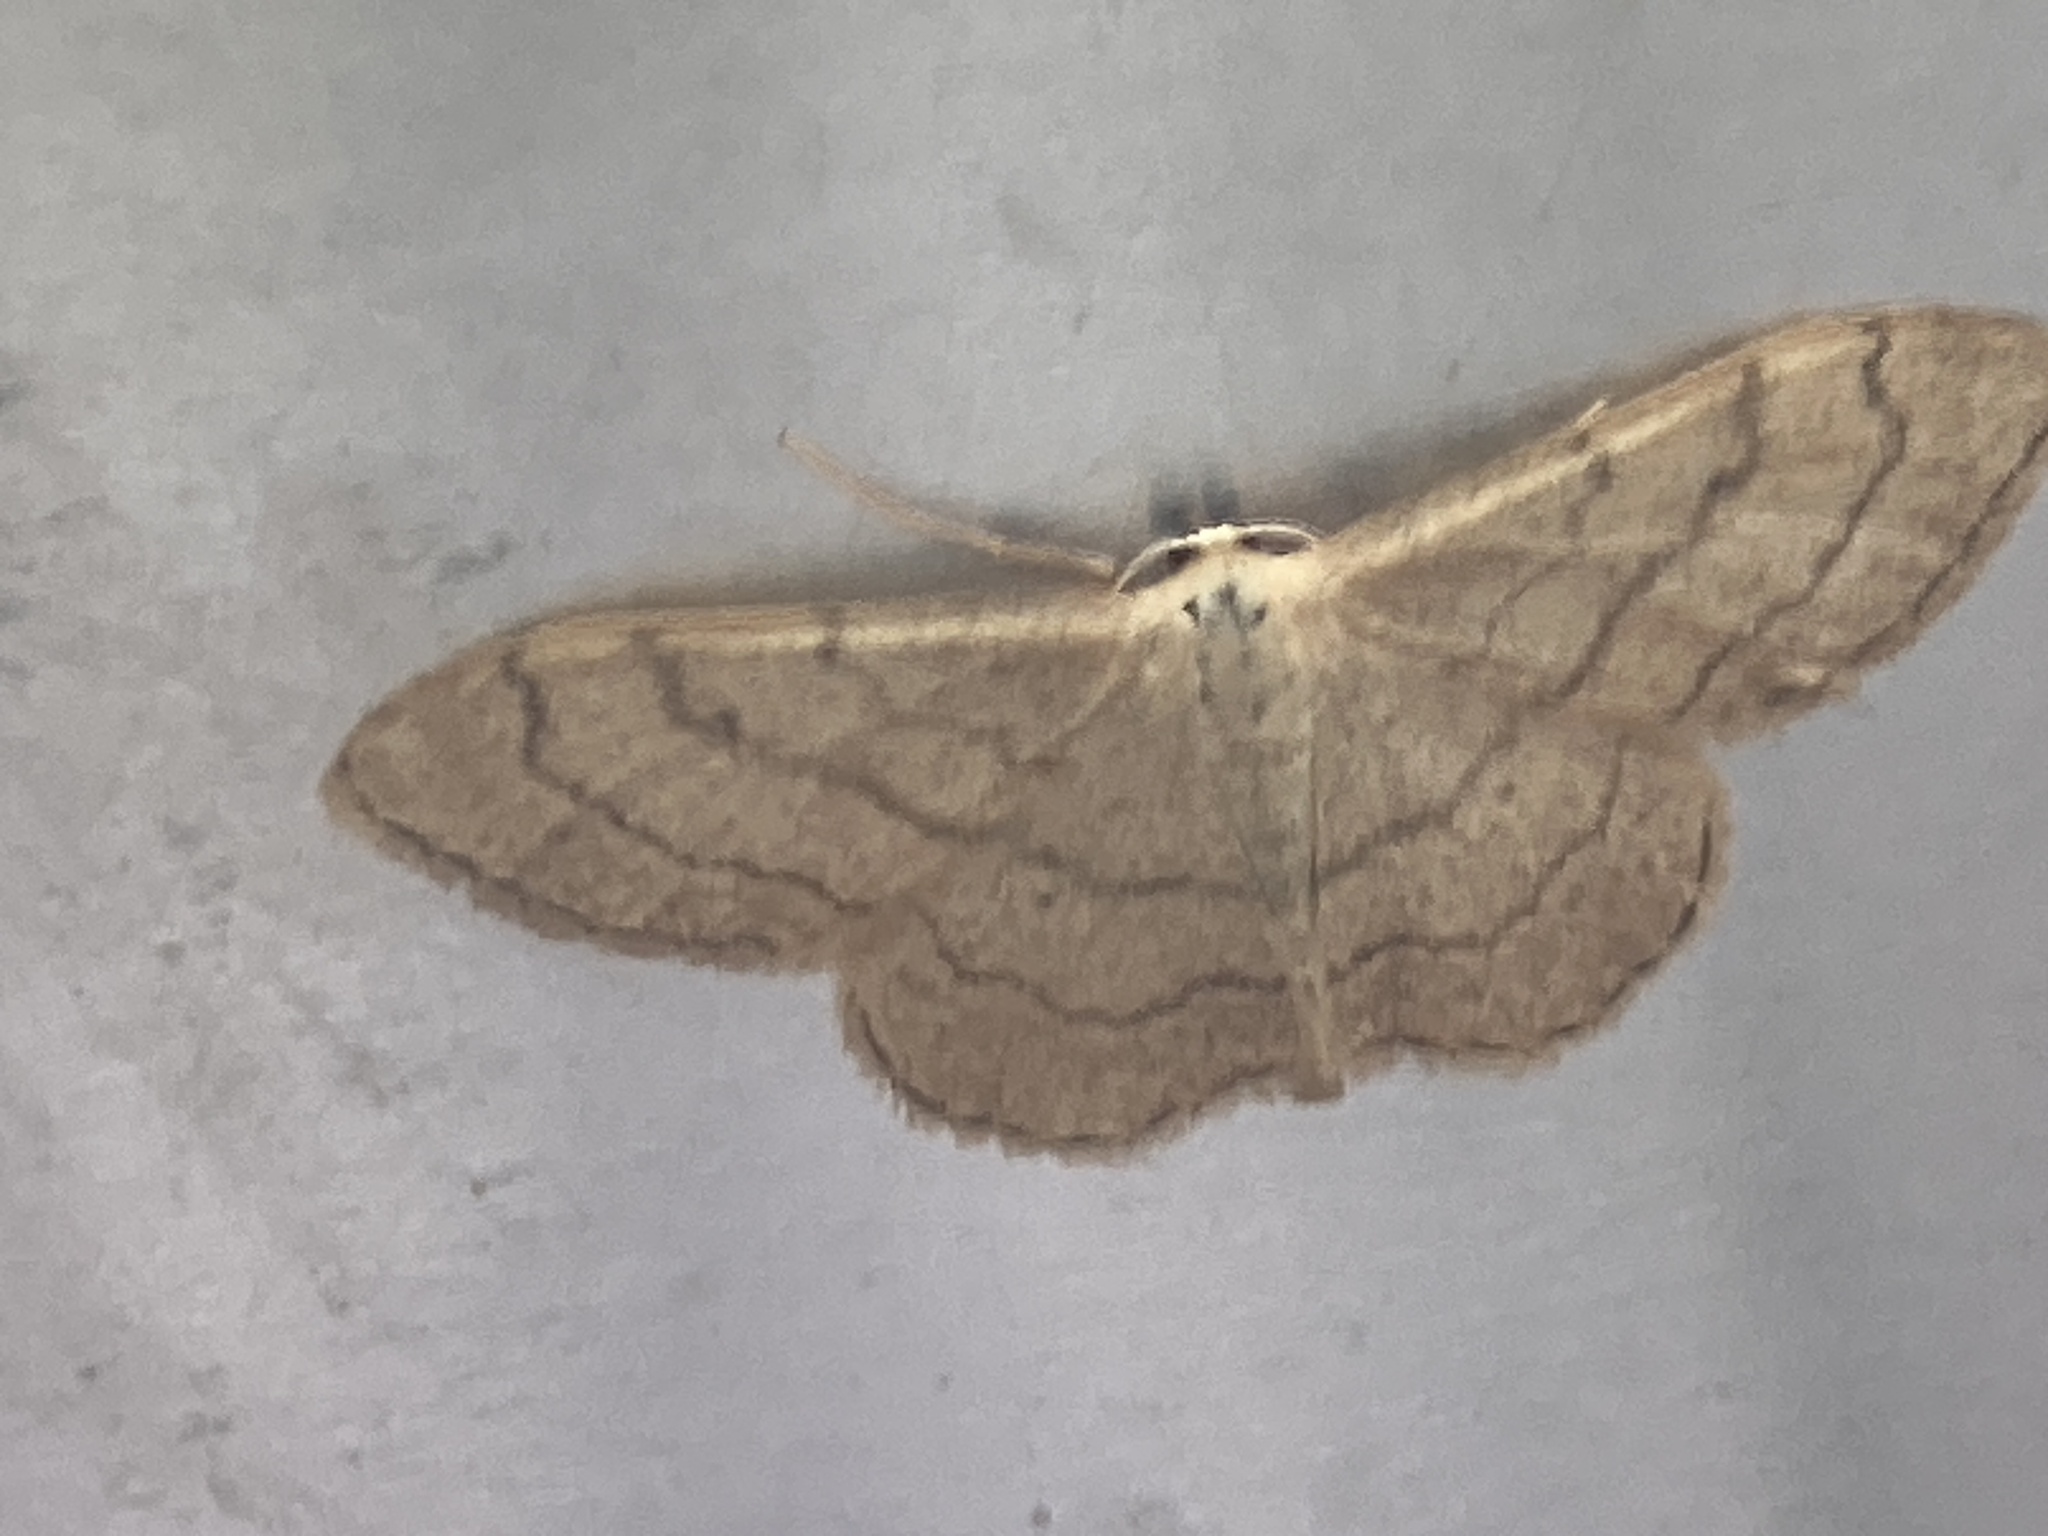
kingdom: Animalia
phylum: Arthropoda
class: Insecta
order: Lepidoptera
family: Geometridae
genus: Idaea
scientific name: Idaea aversata
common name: Riband wave
